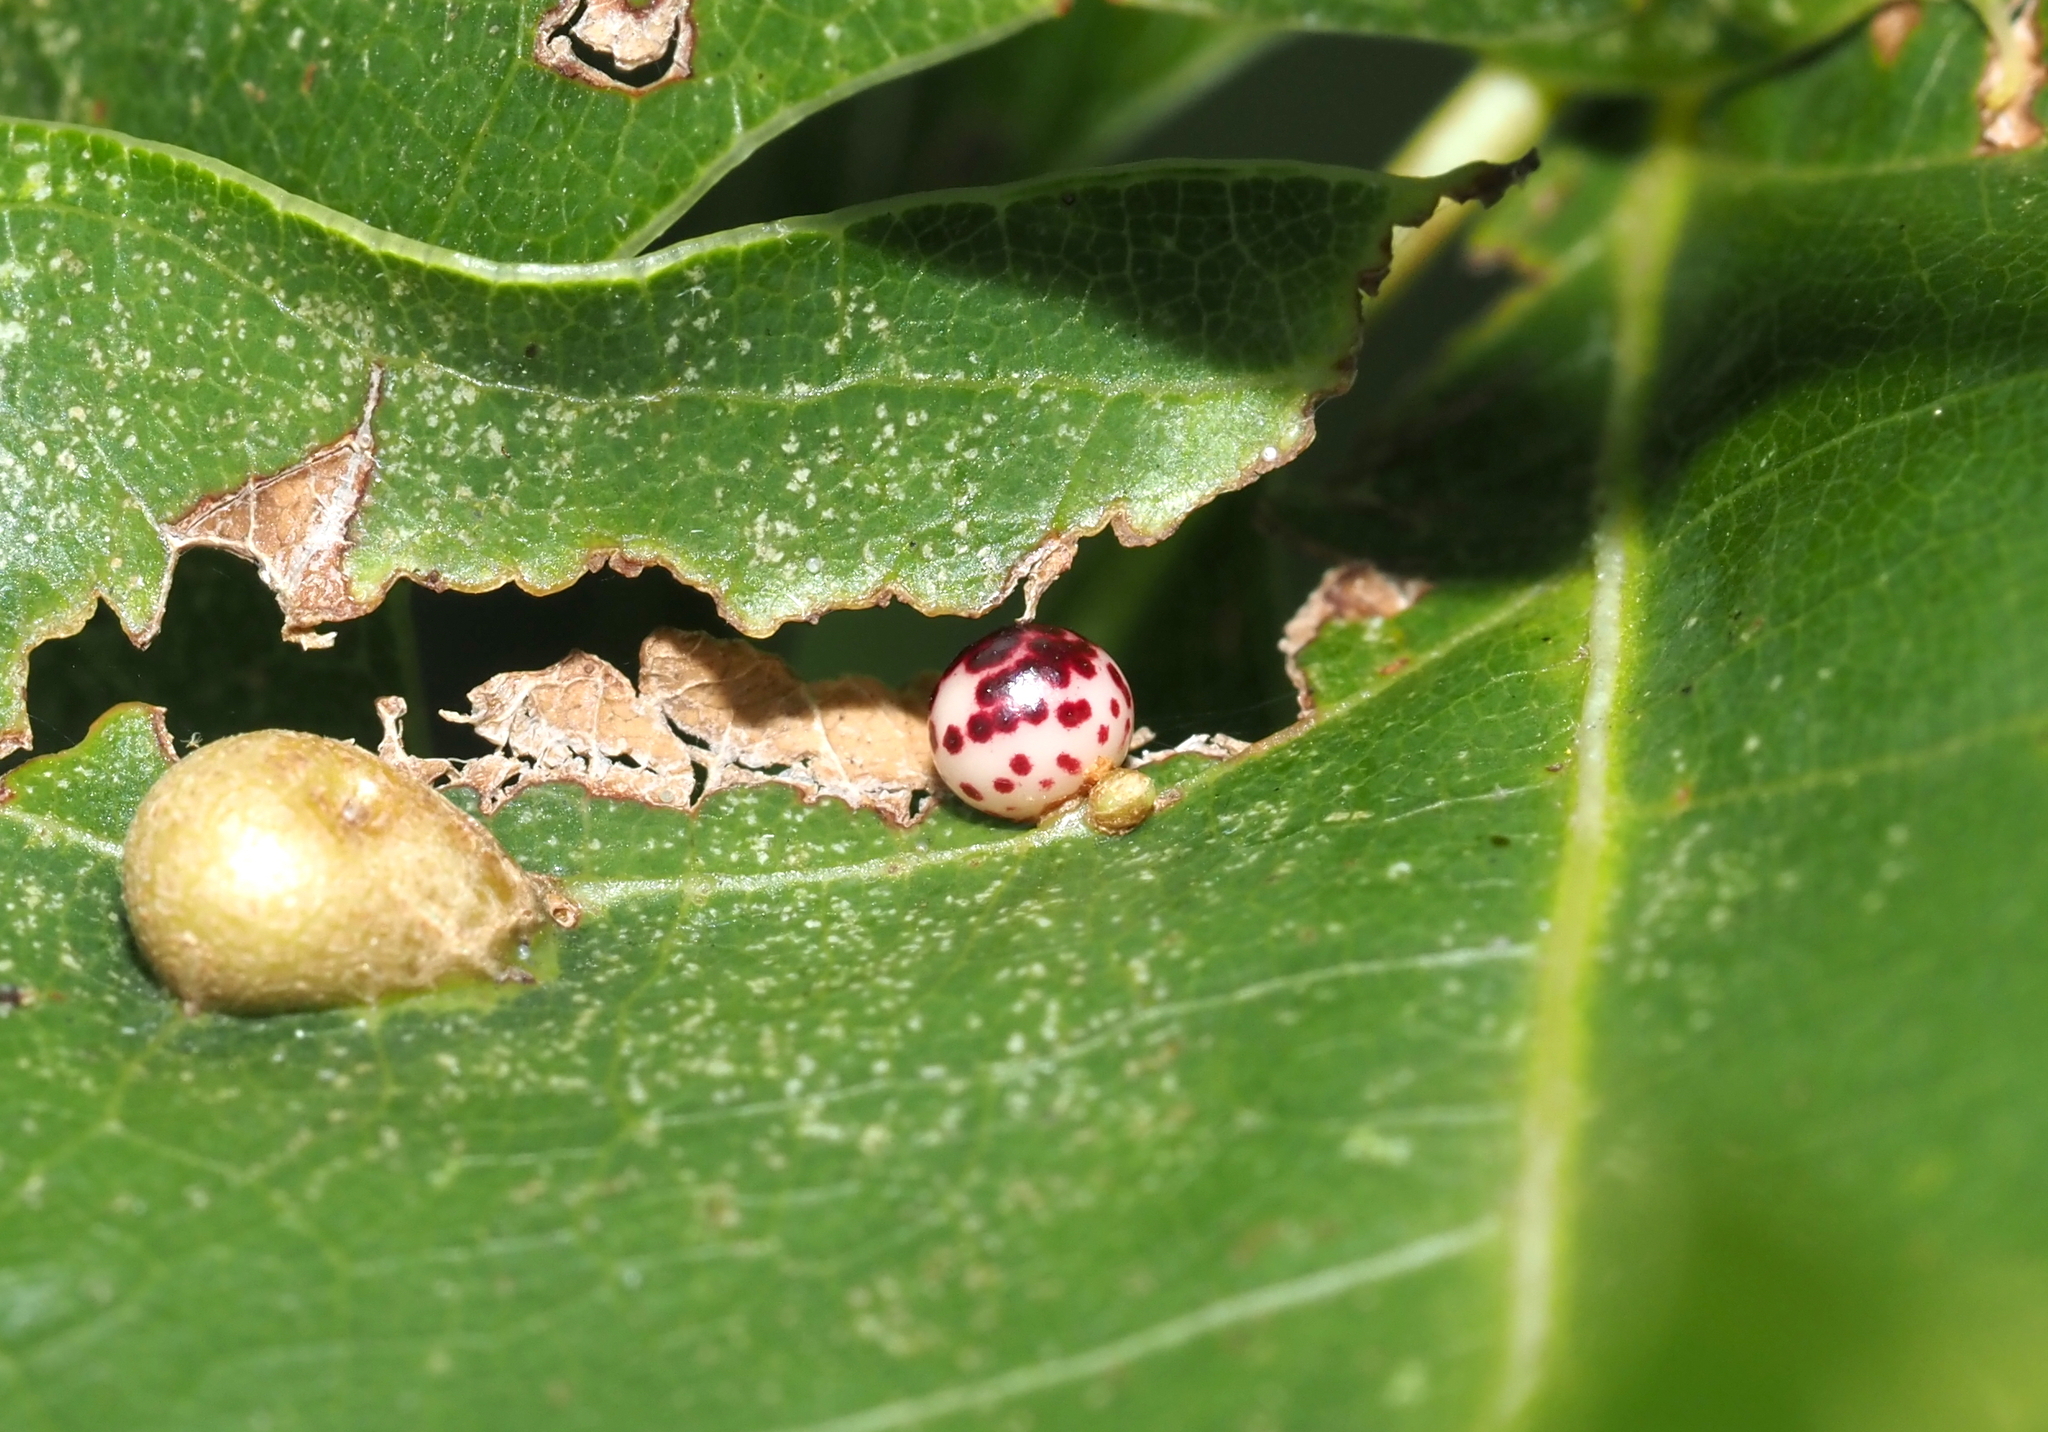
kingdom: Animalia
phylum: Arthropoda
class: Insecta
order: Hymenoptera
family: Cynipidae
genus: Zopheroteras
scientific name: Zopheroteras
